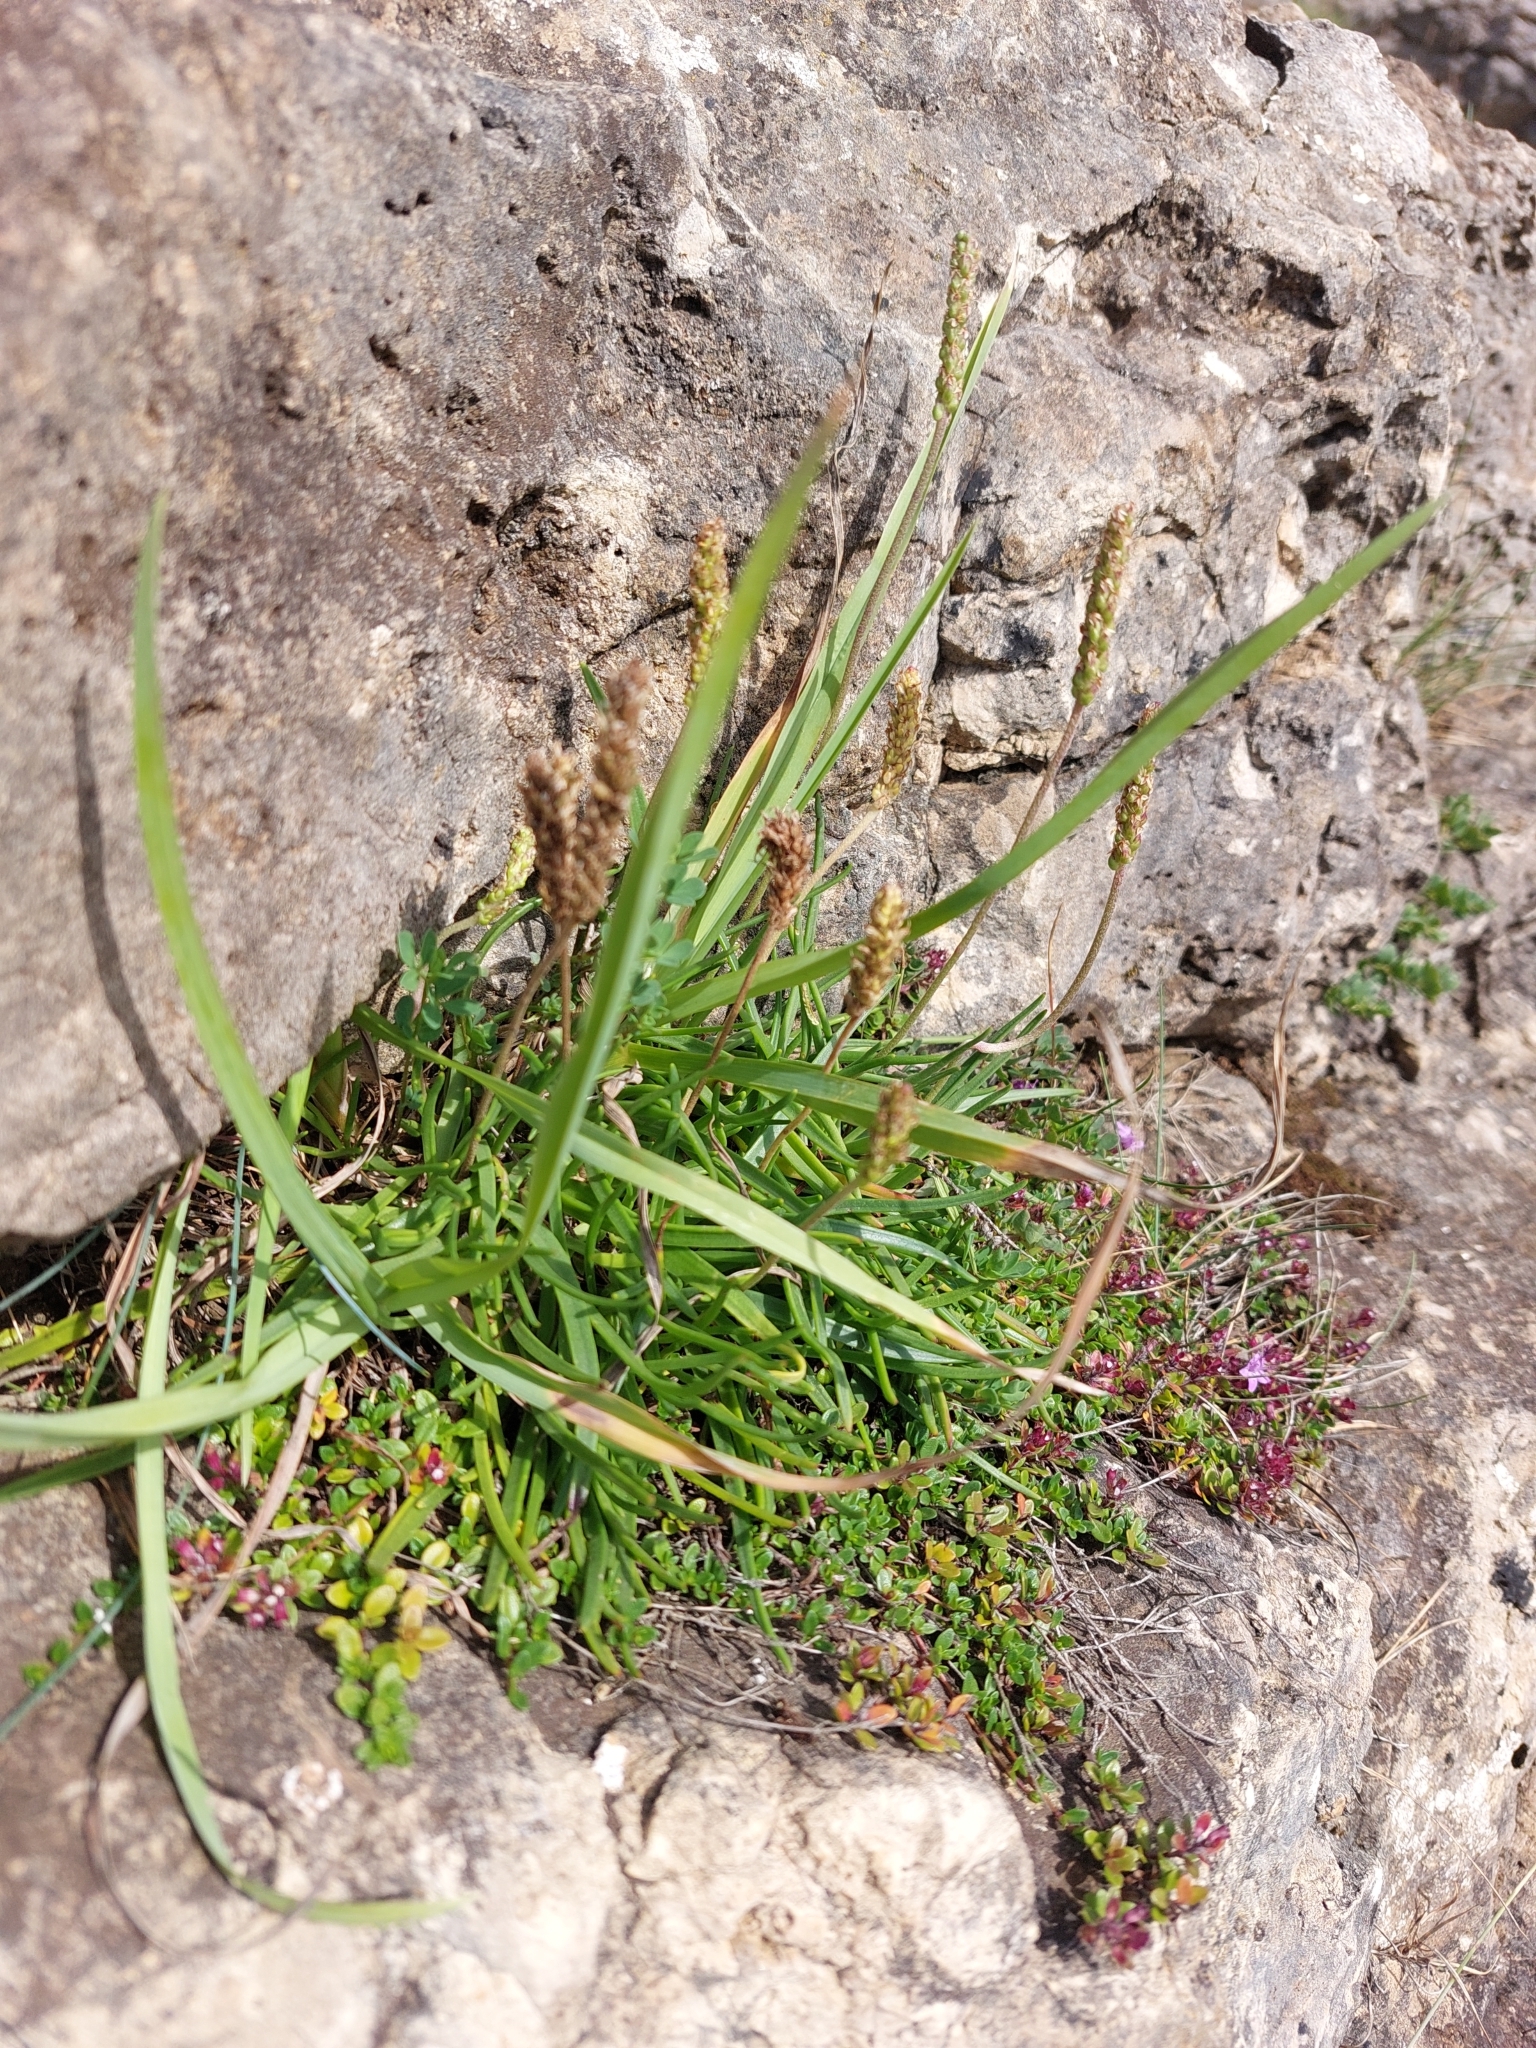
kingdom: Plantae
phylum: Tracheophyta
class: Magnoliopsida
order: Lamiales
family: Plantaginaceae
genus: Plantago
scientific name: Plantago maritima
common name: Sea plantain
